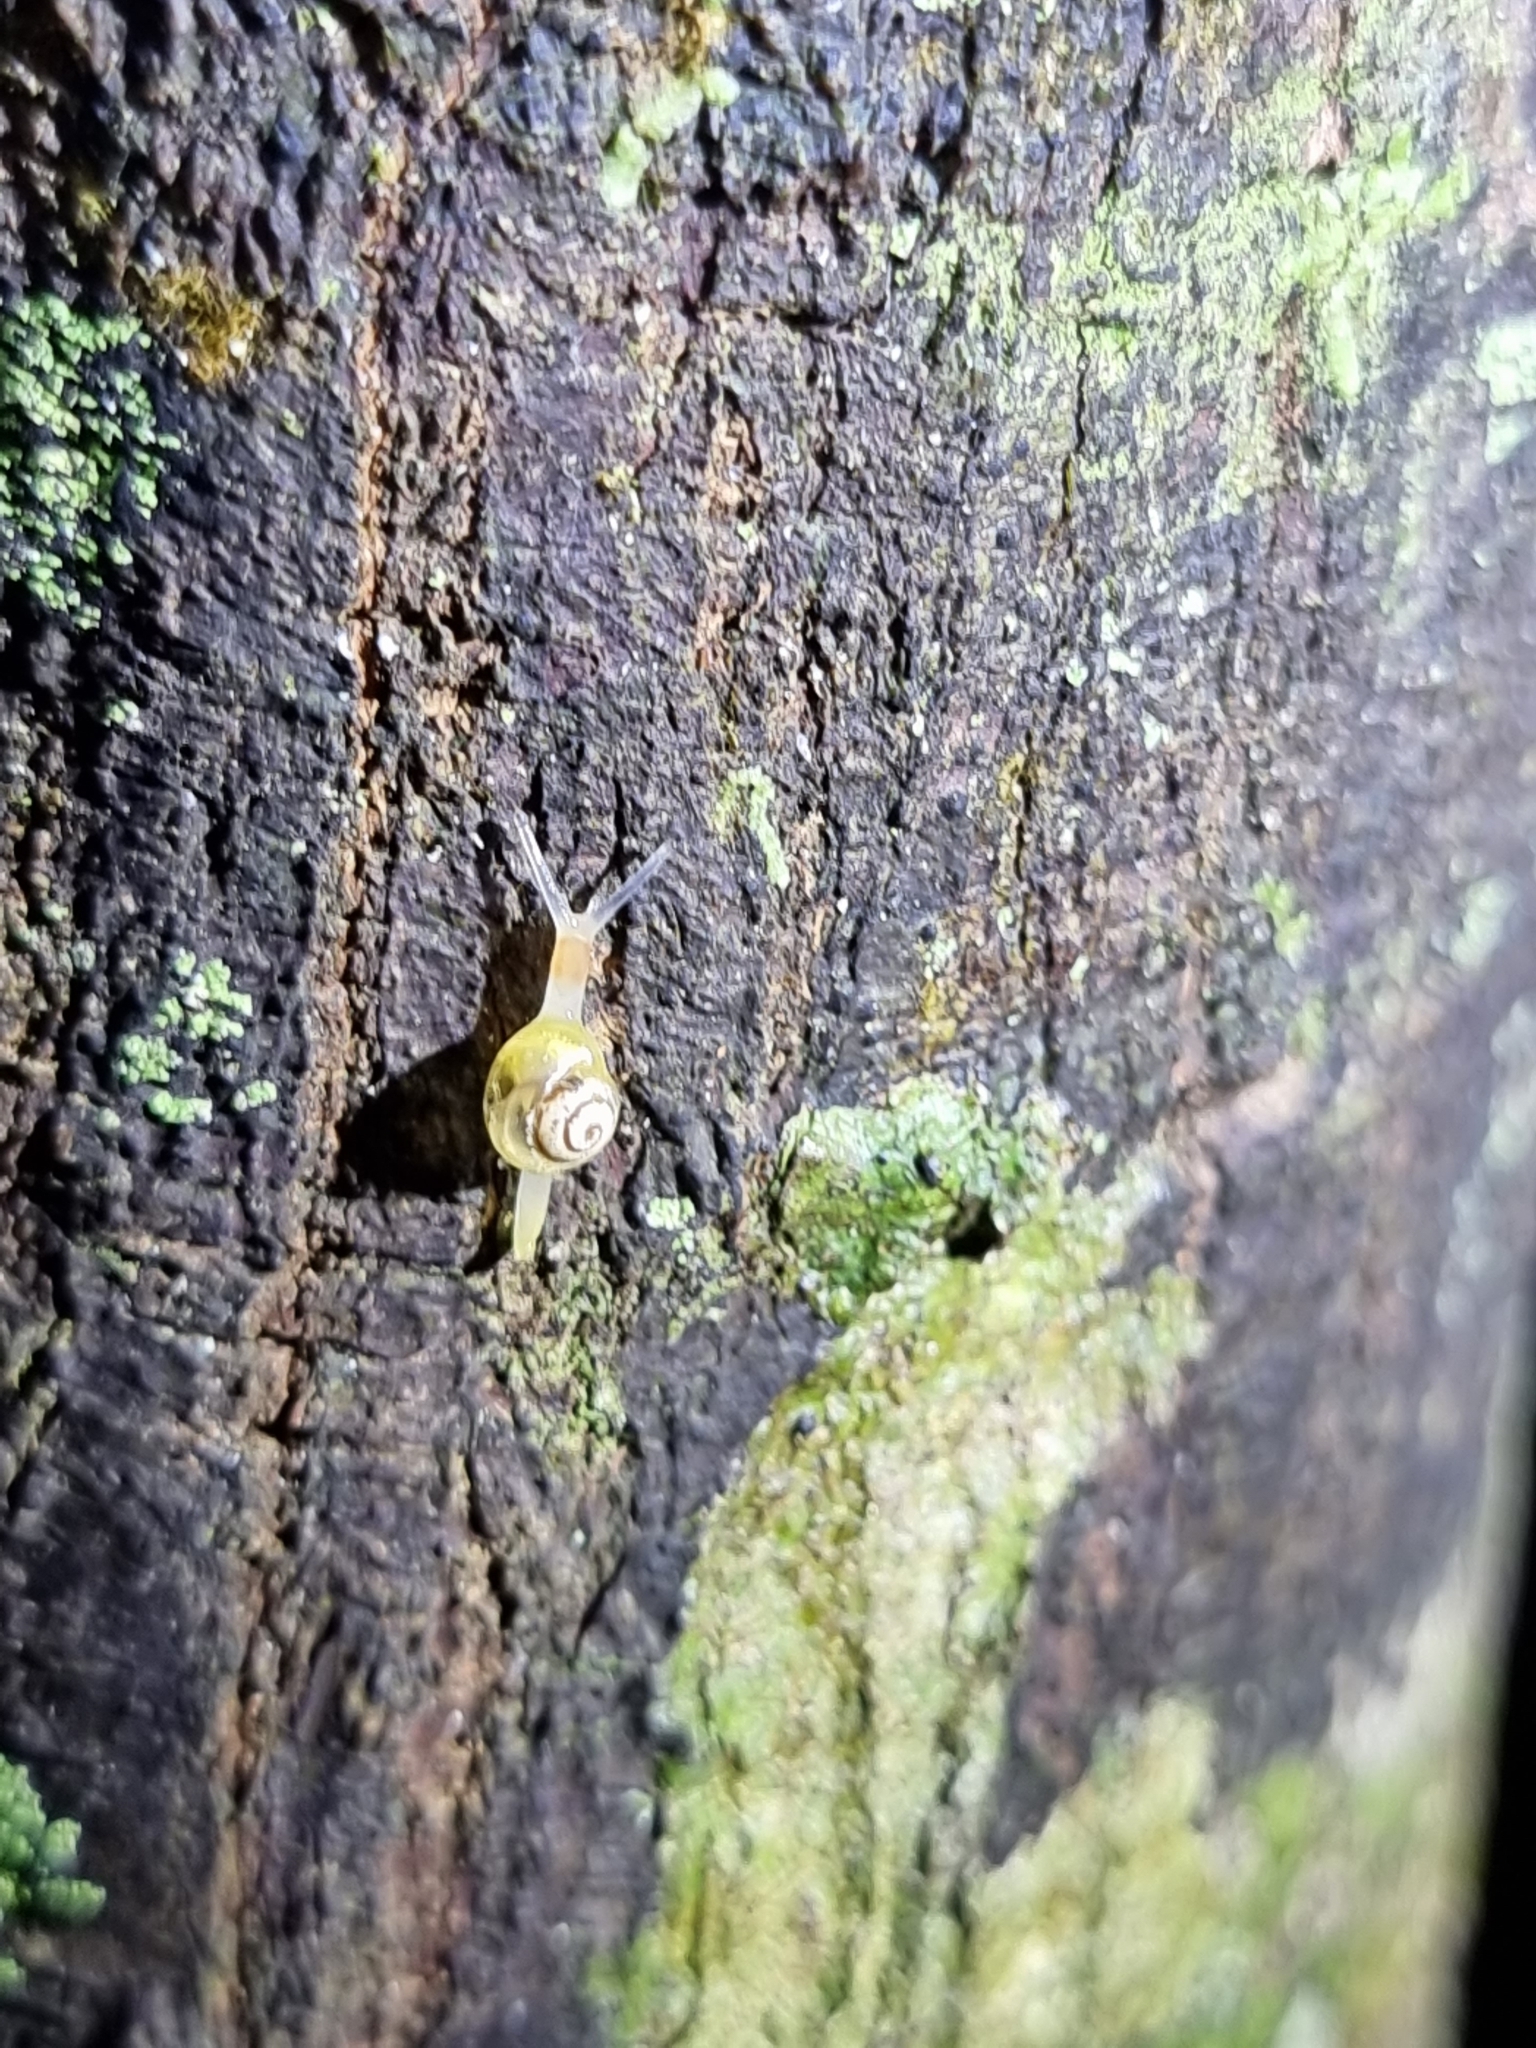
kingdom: Animalia
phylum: Mollusca
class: Gastropoda
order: Stylommatophora
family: Euconulidae
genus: Coneuplecta
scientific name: Coneuplecta pampini
